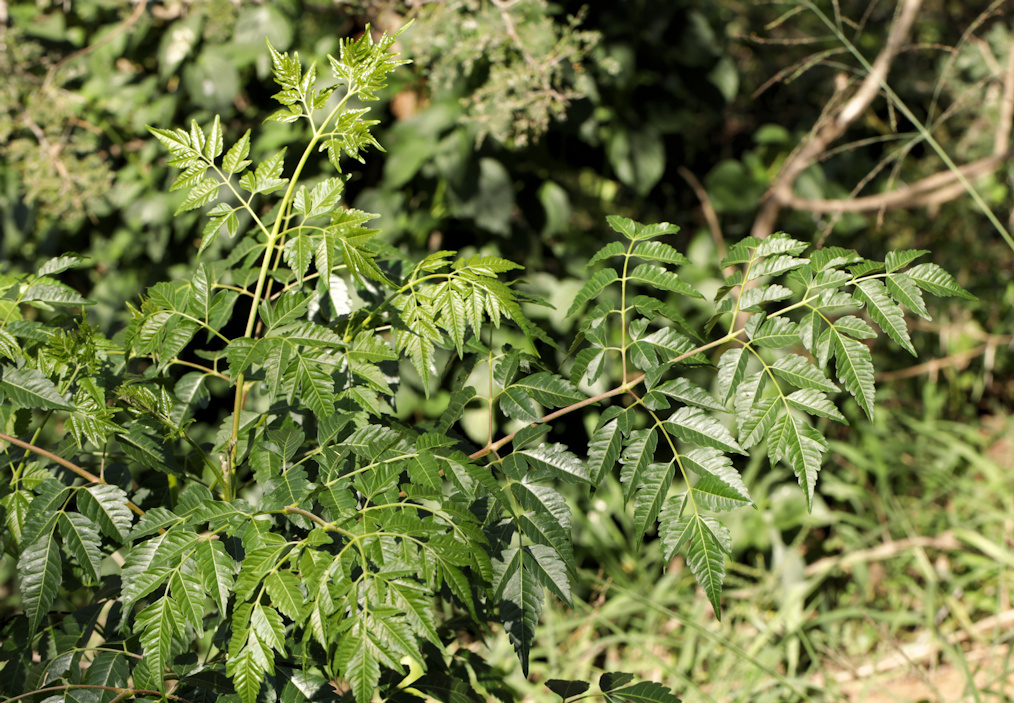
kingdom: Plantae
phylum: Tracheophyta
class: Magnoliopsida
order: Sapindales
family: Meliaceae
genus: Melia
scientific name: Melia azedarach
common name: Chinaberrytree
